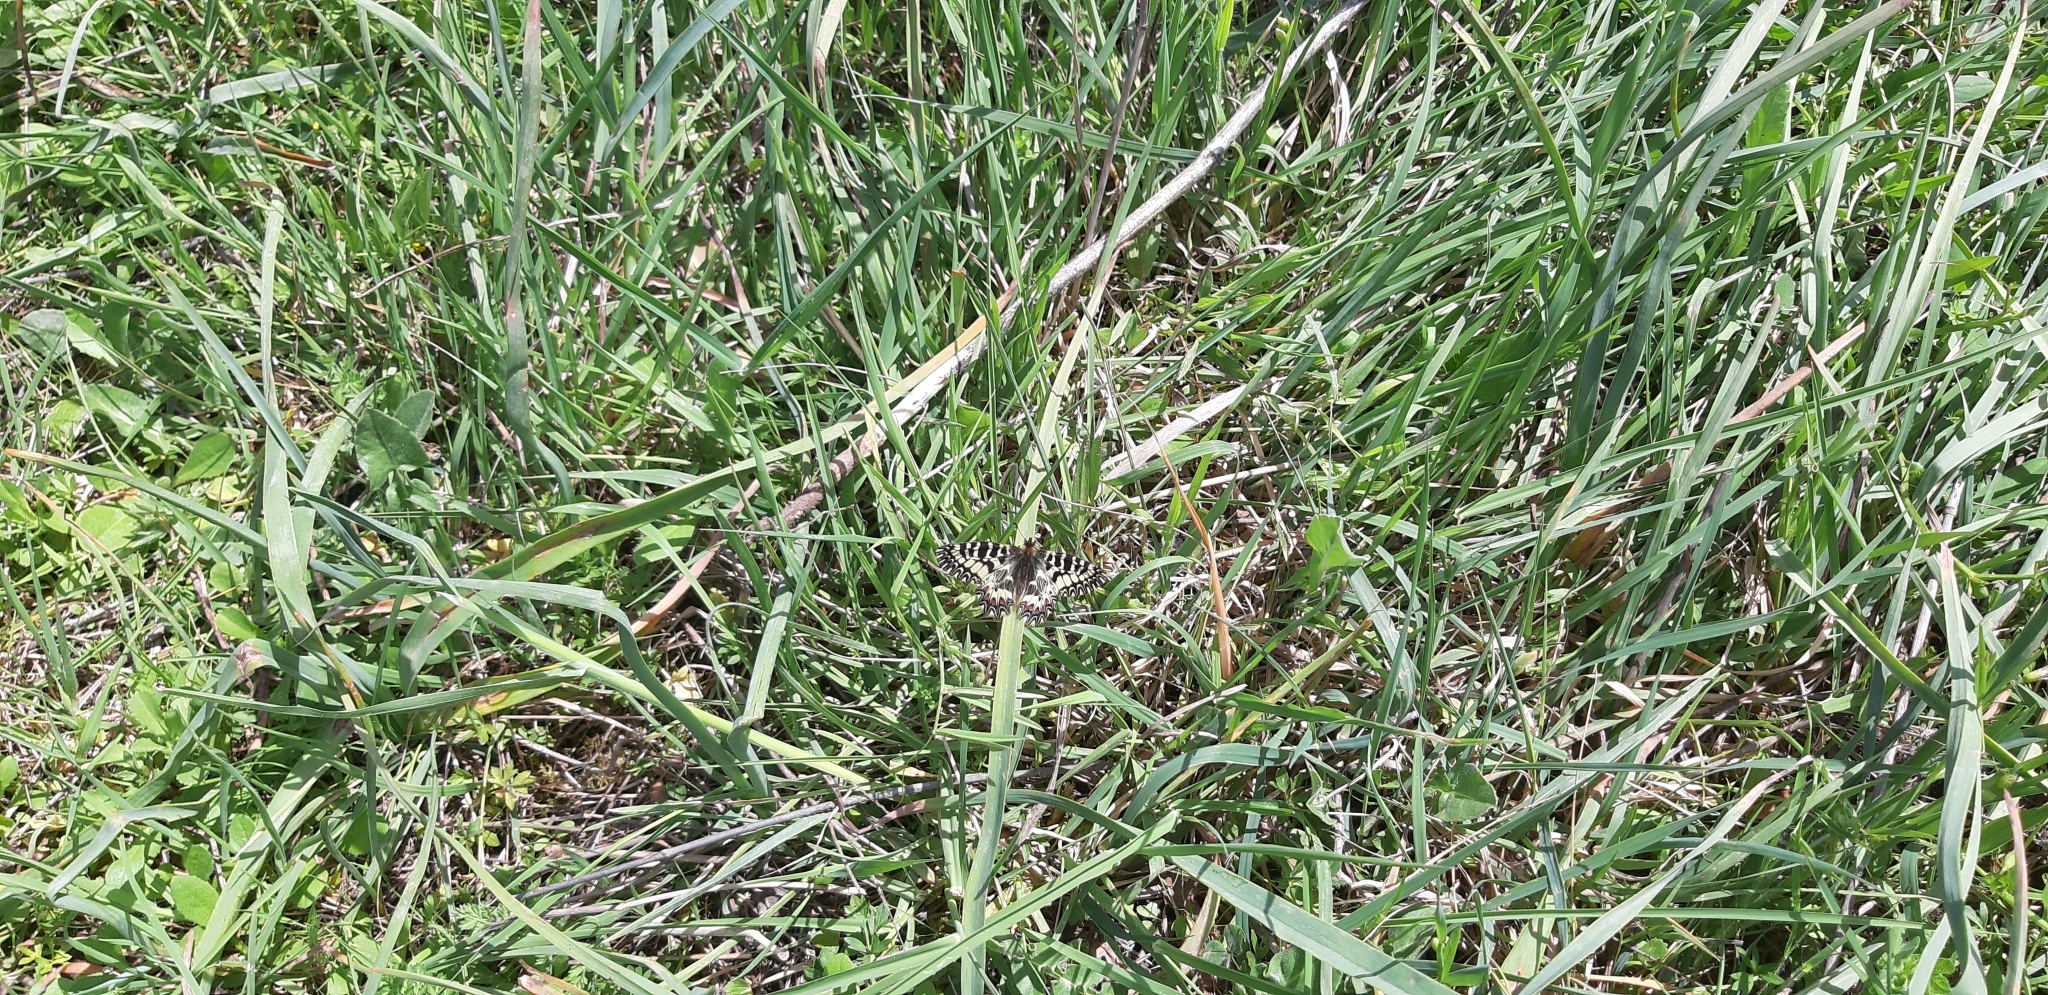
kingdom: Animalia
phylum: Arthropoda
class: Insecta
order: Lepidoptera
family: Papilionidae
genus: Zerynthia
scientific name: Zerynthia cassandra
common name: Italian festoon
